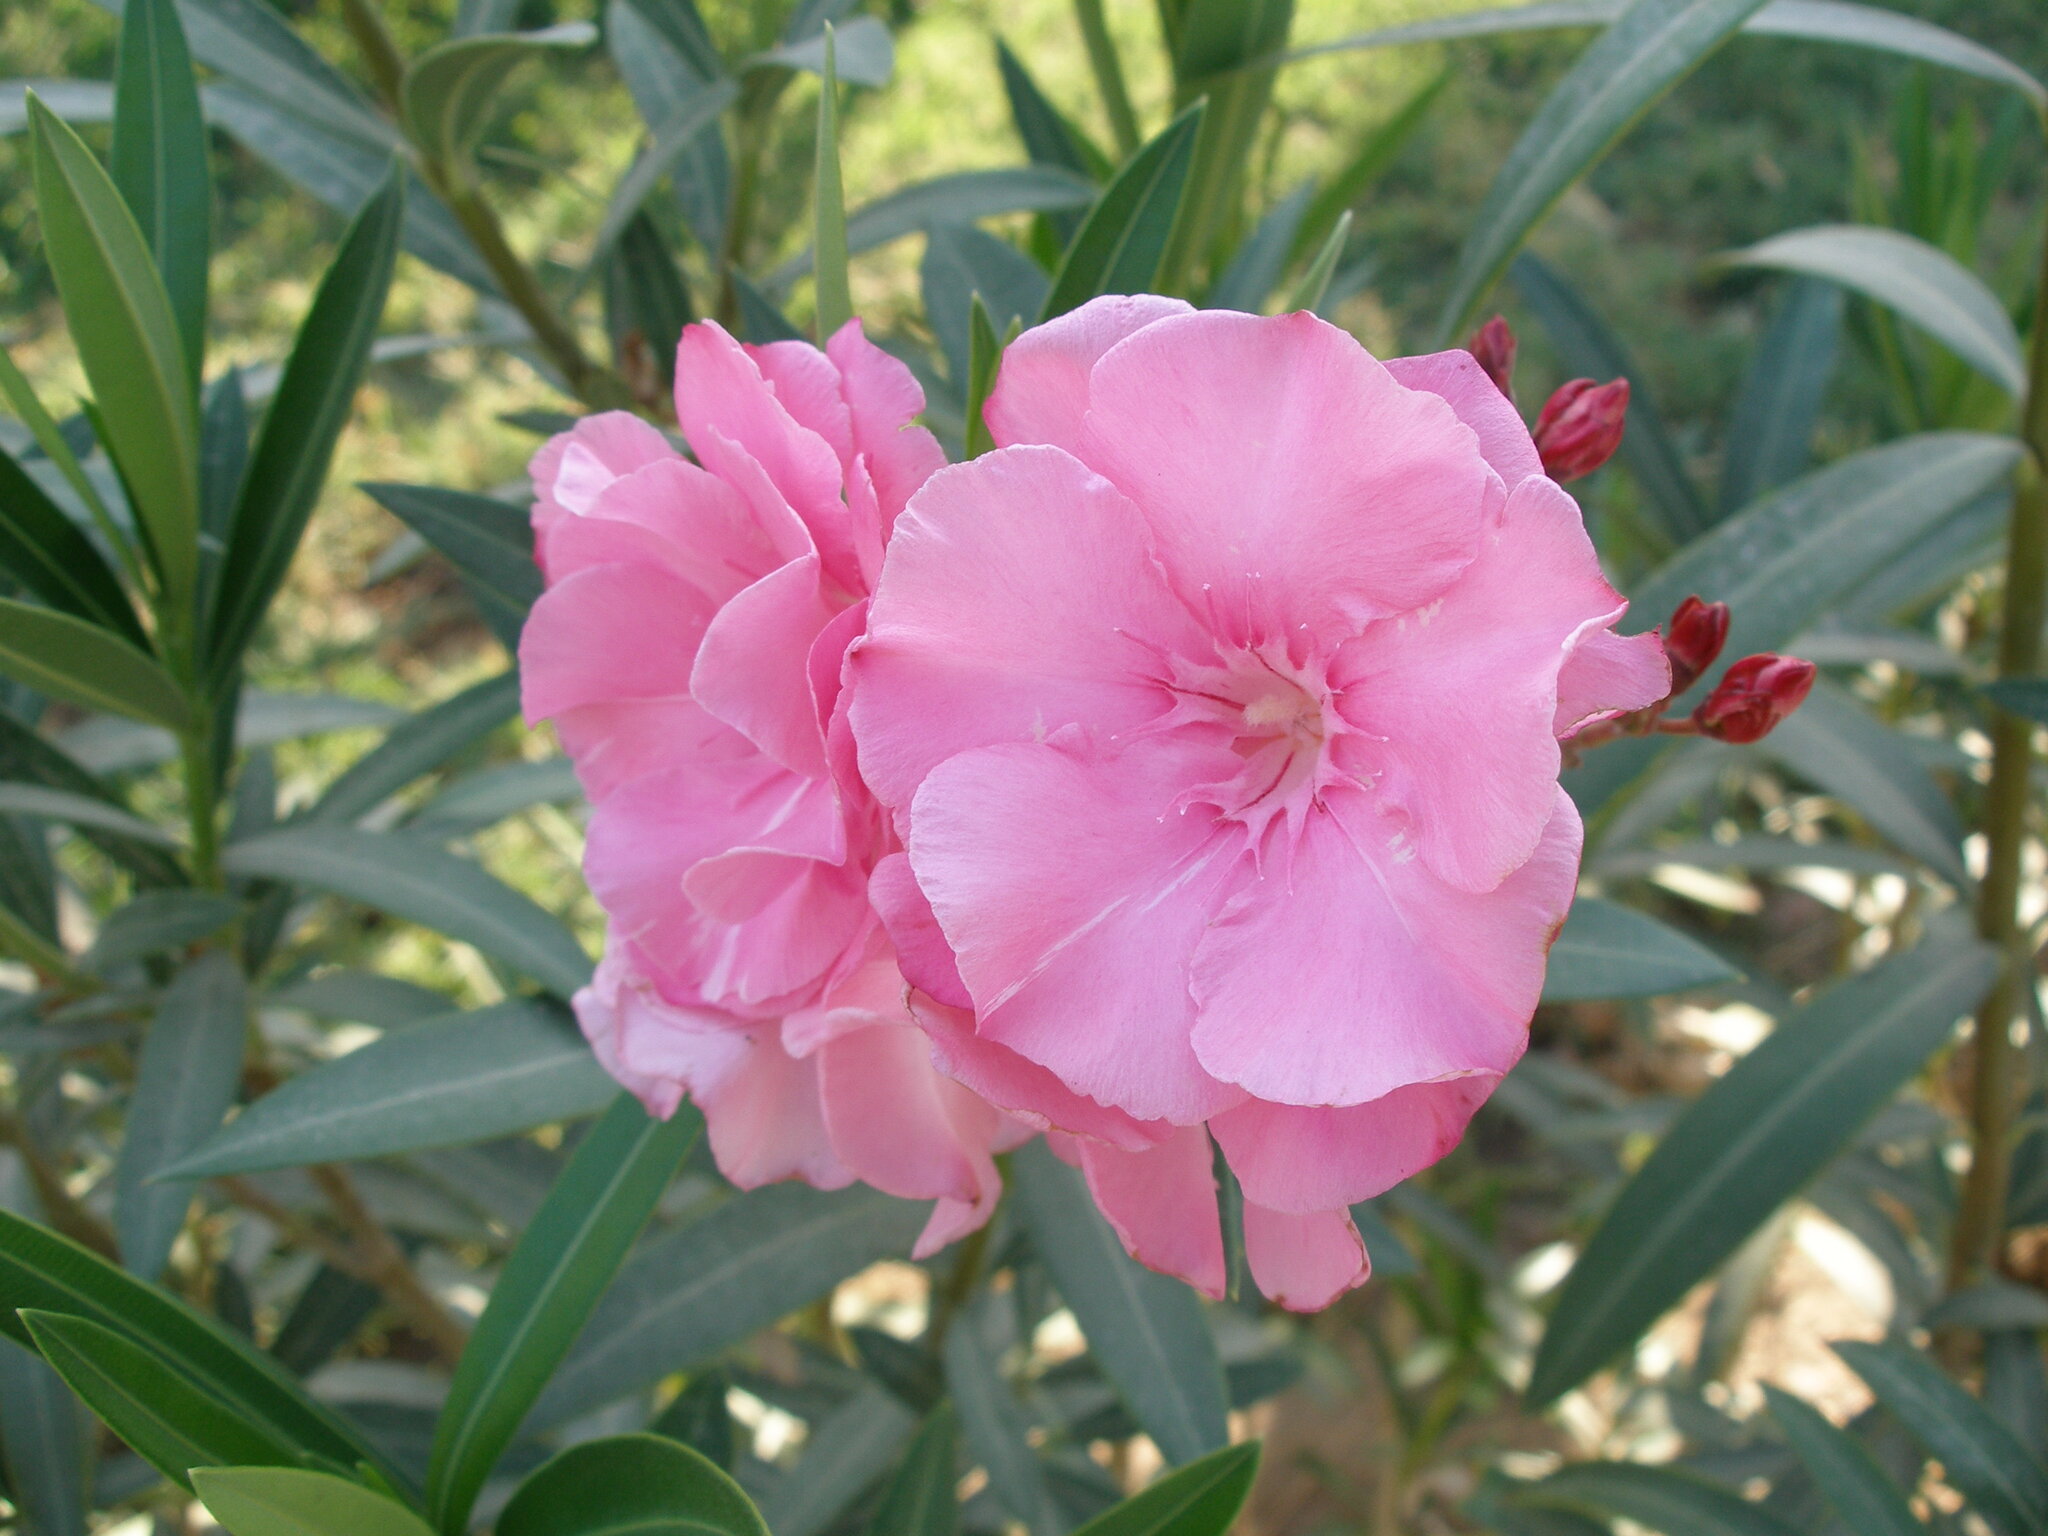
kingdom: Plantae
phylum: Tracheophyta
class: Magnoliopsida
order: Gentianales
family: Apocynaceae
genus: Nerium
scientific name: Nerium oleander
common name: Oleander
